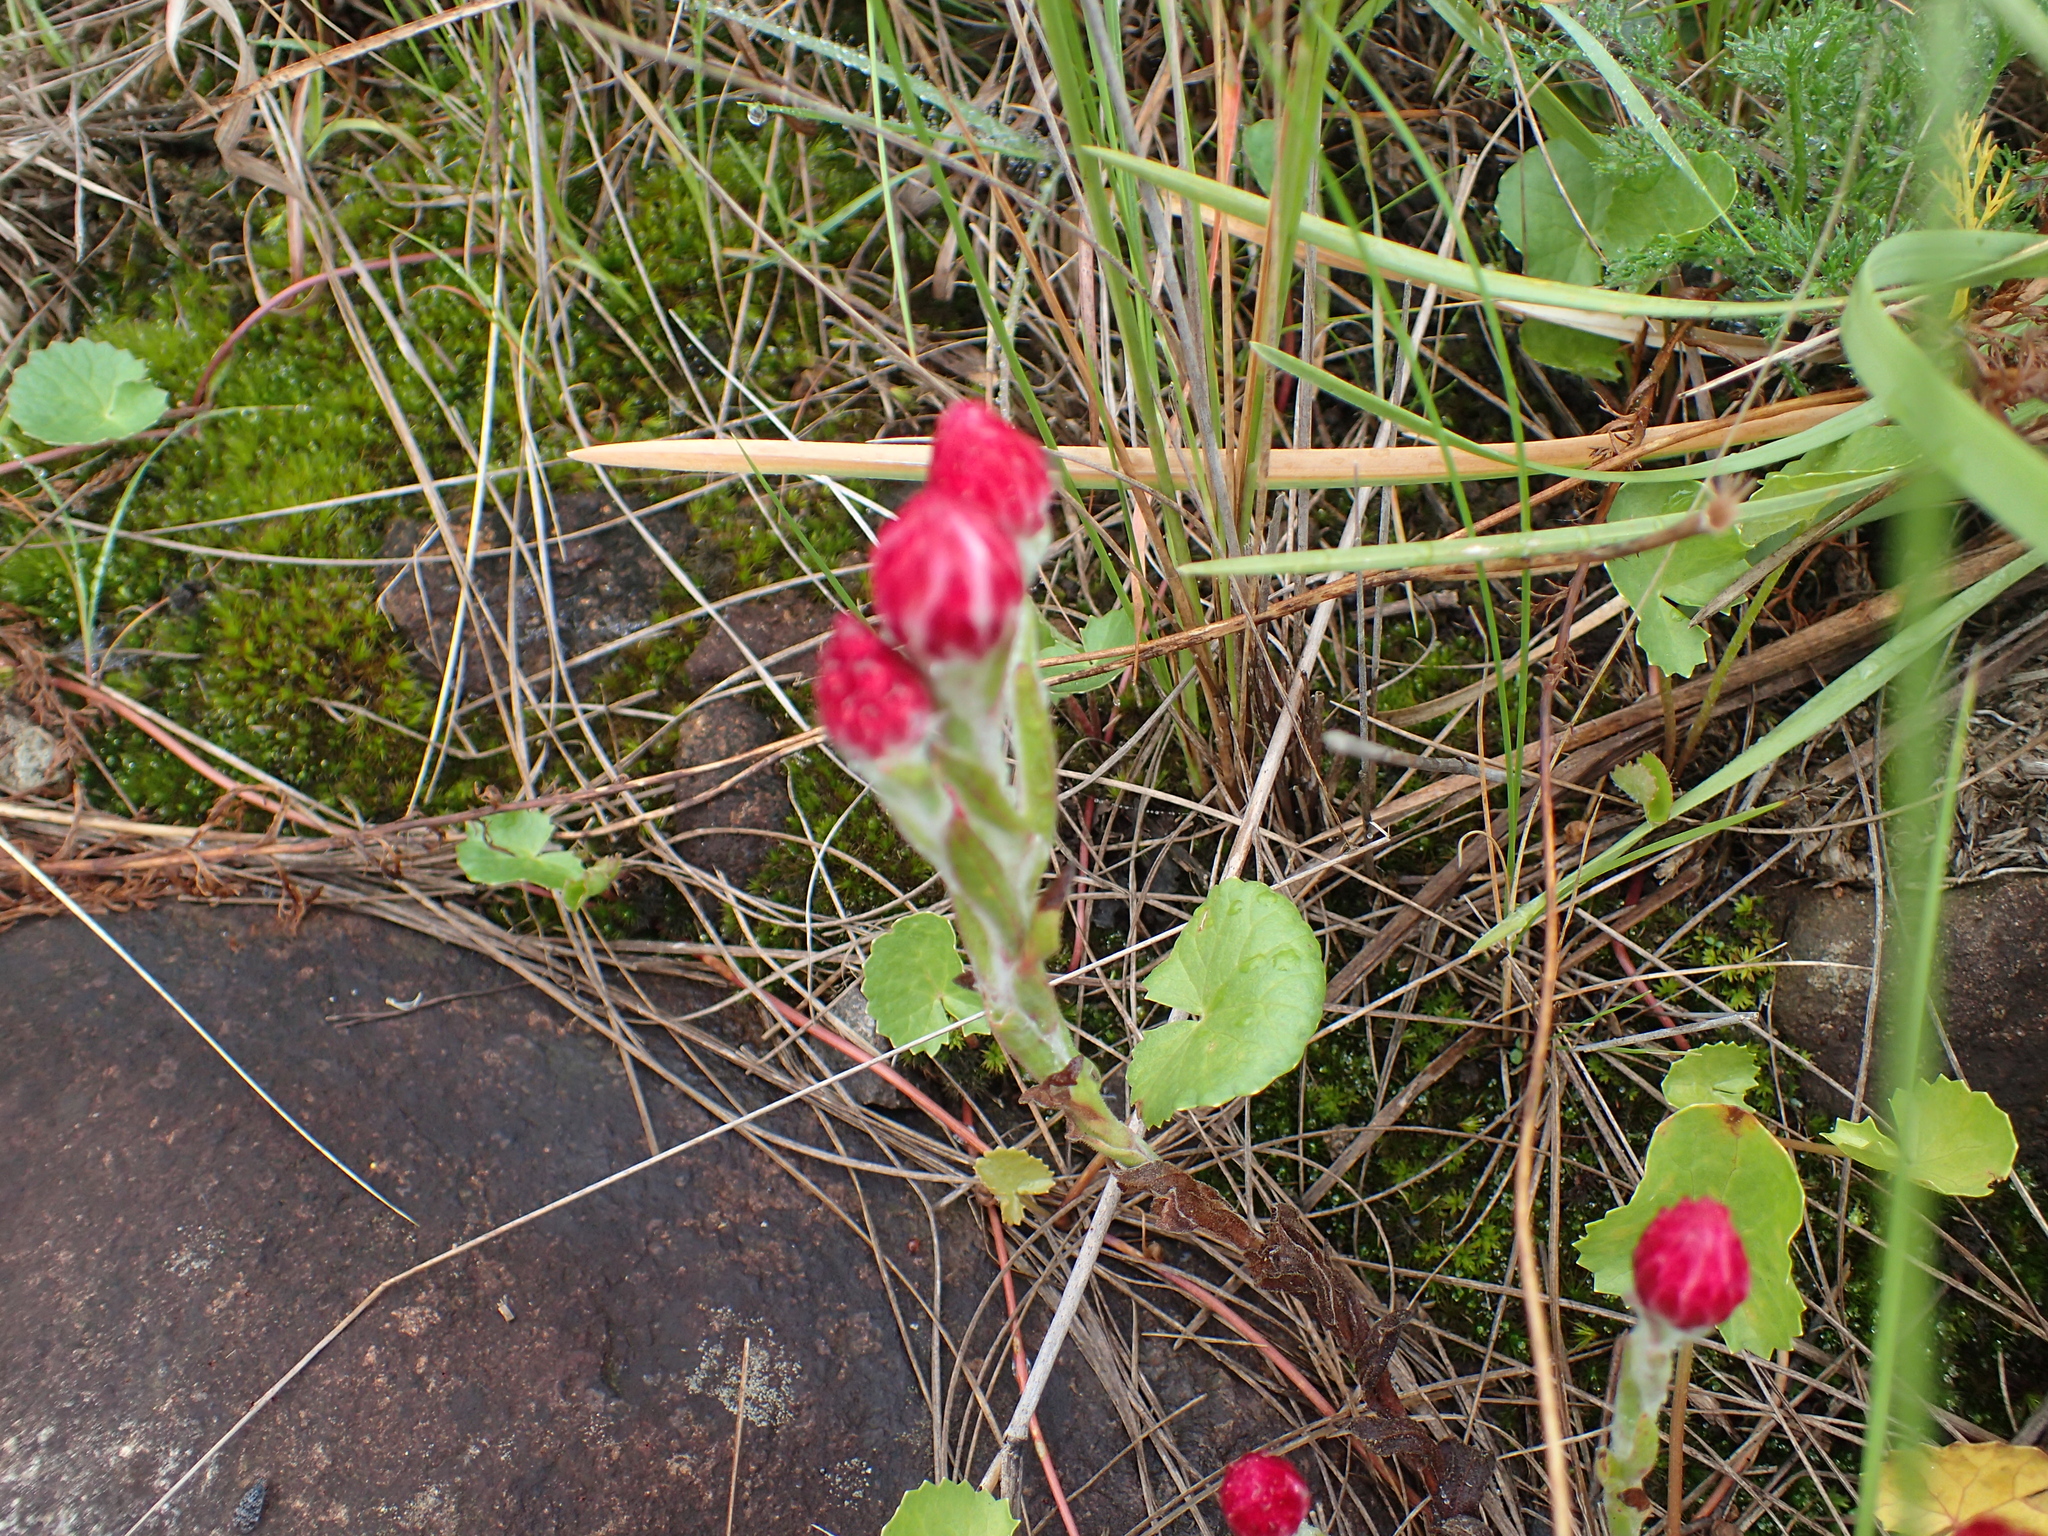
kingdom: Plantae
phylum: Tracheophyta
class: Magnoliopsida
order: Asterales
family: Asteraceae
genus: Helichrysum
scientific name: Helichrysum adenocarpum
